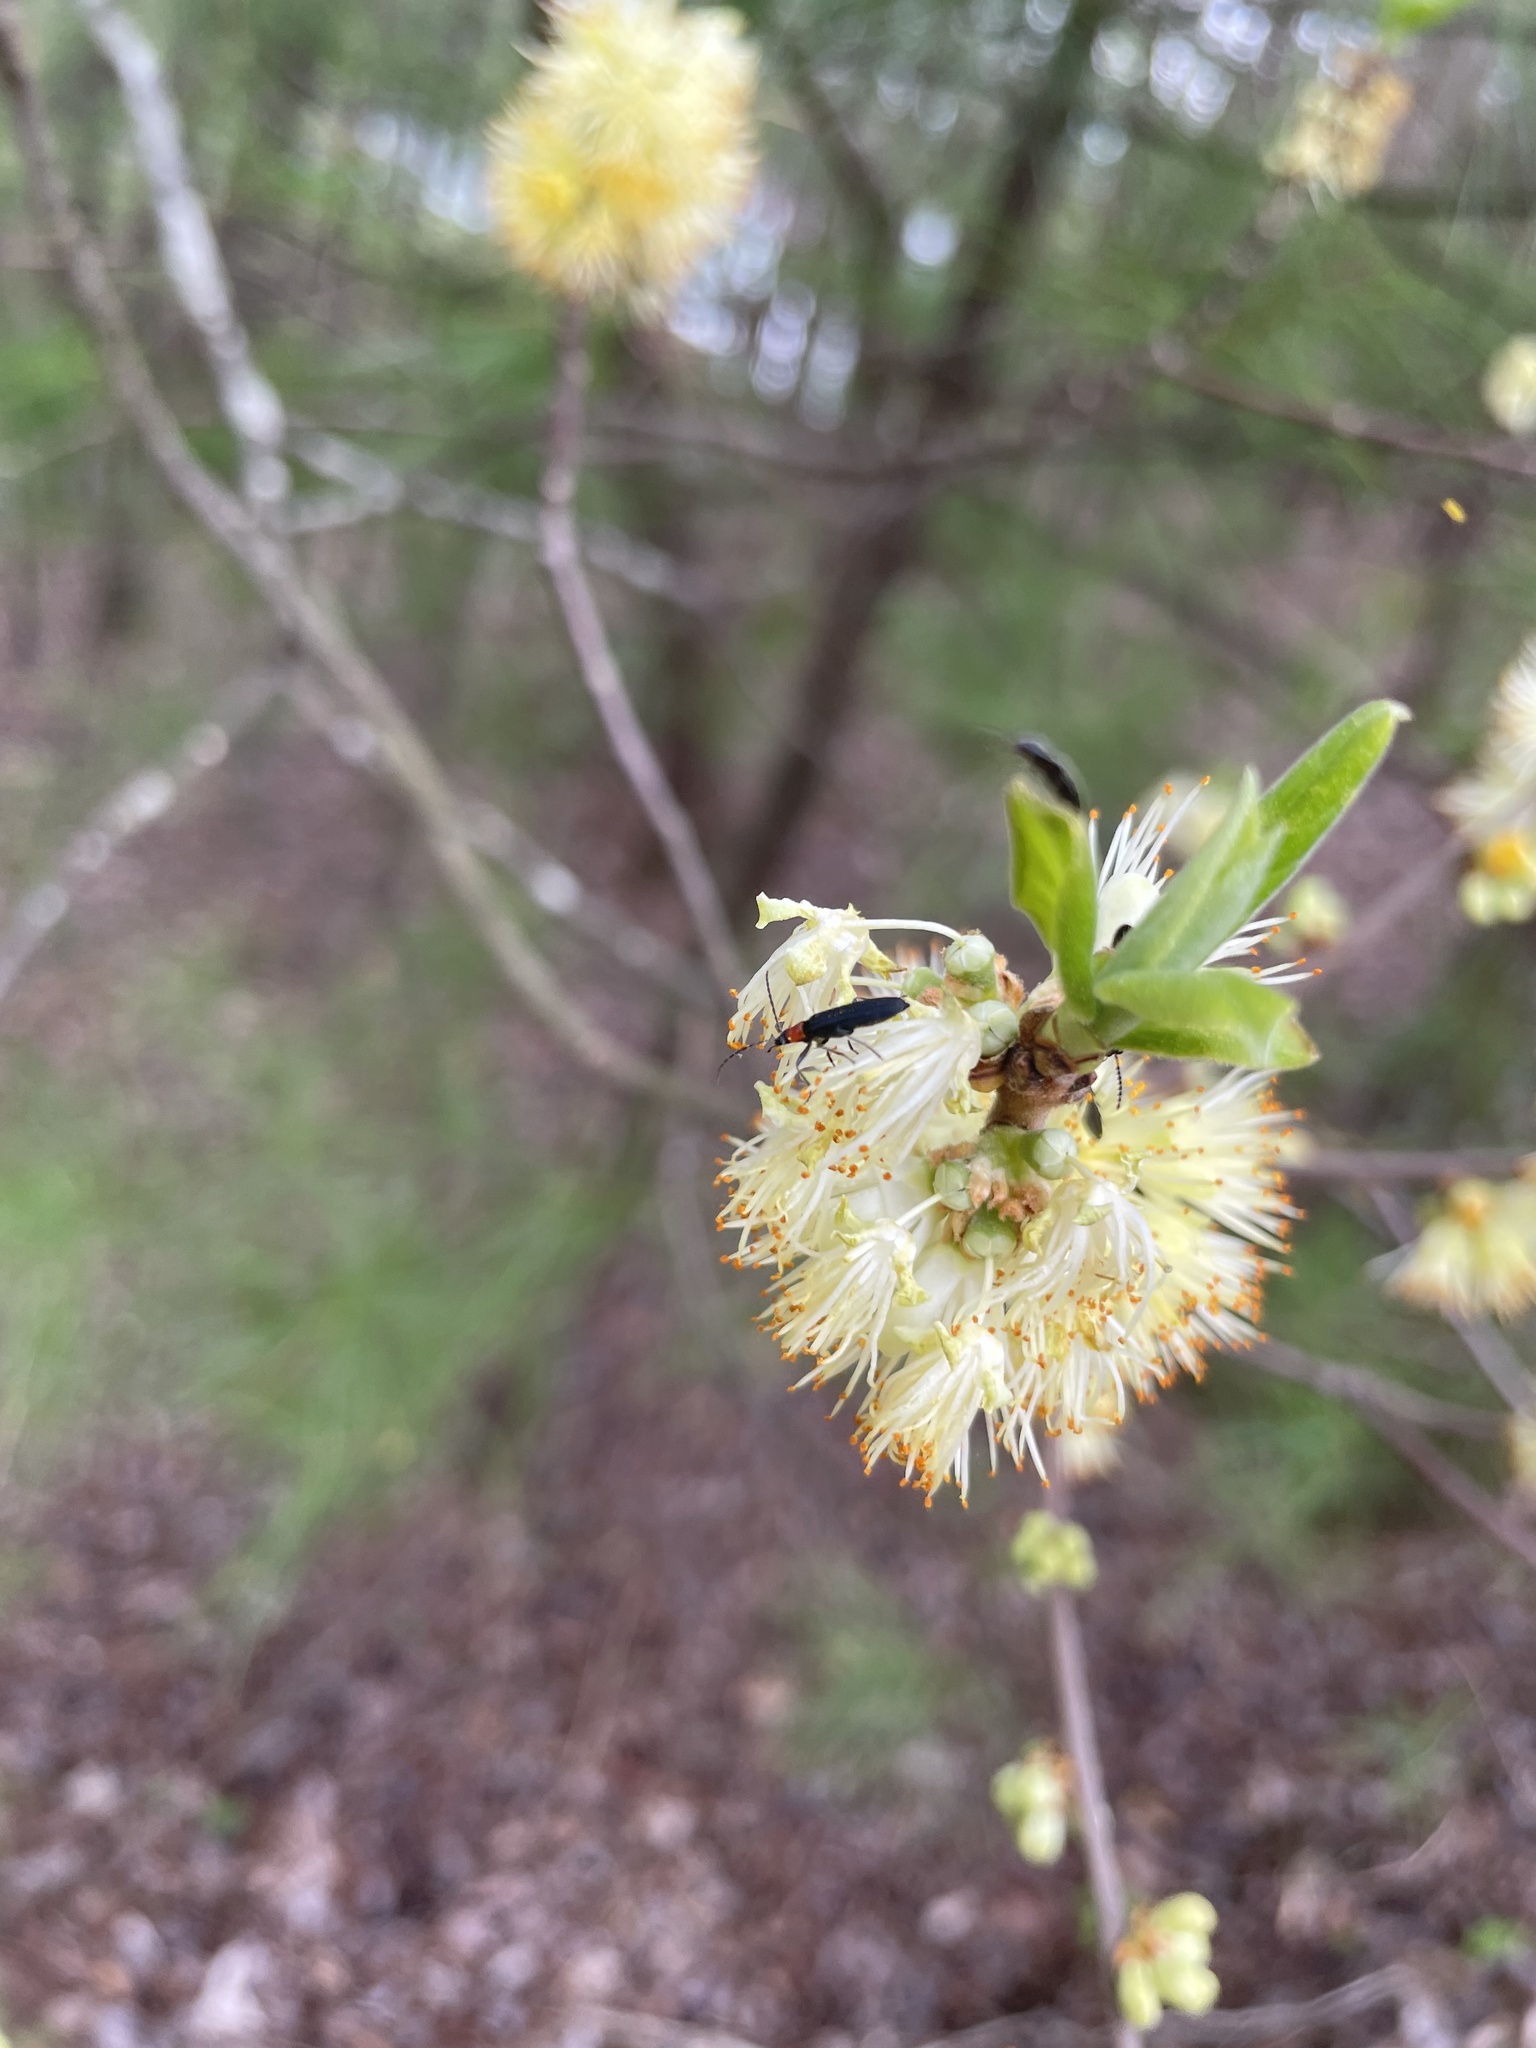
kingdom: Plantae
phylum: Tracheophyta
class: Magnoliopsida
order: Ericales
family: Symplocaceae
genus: Symplocos
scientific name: Symplocos tinctoria
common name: Horse-sugar
